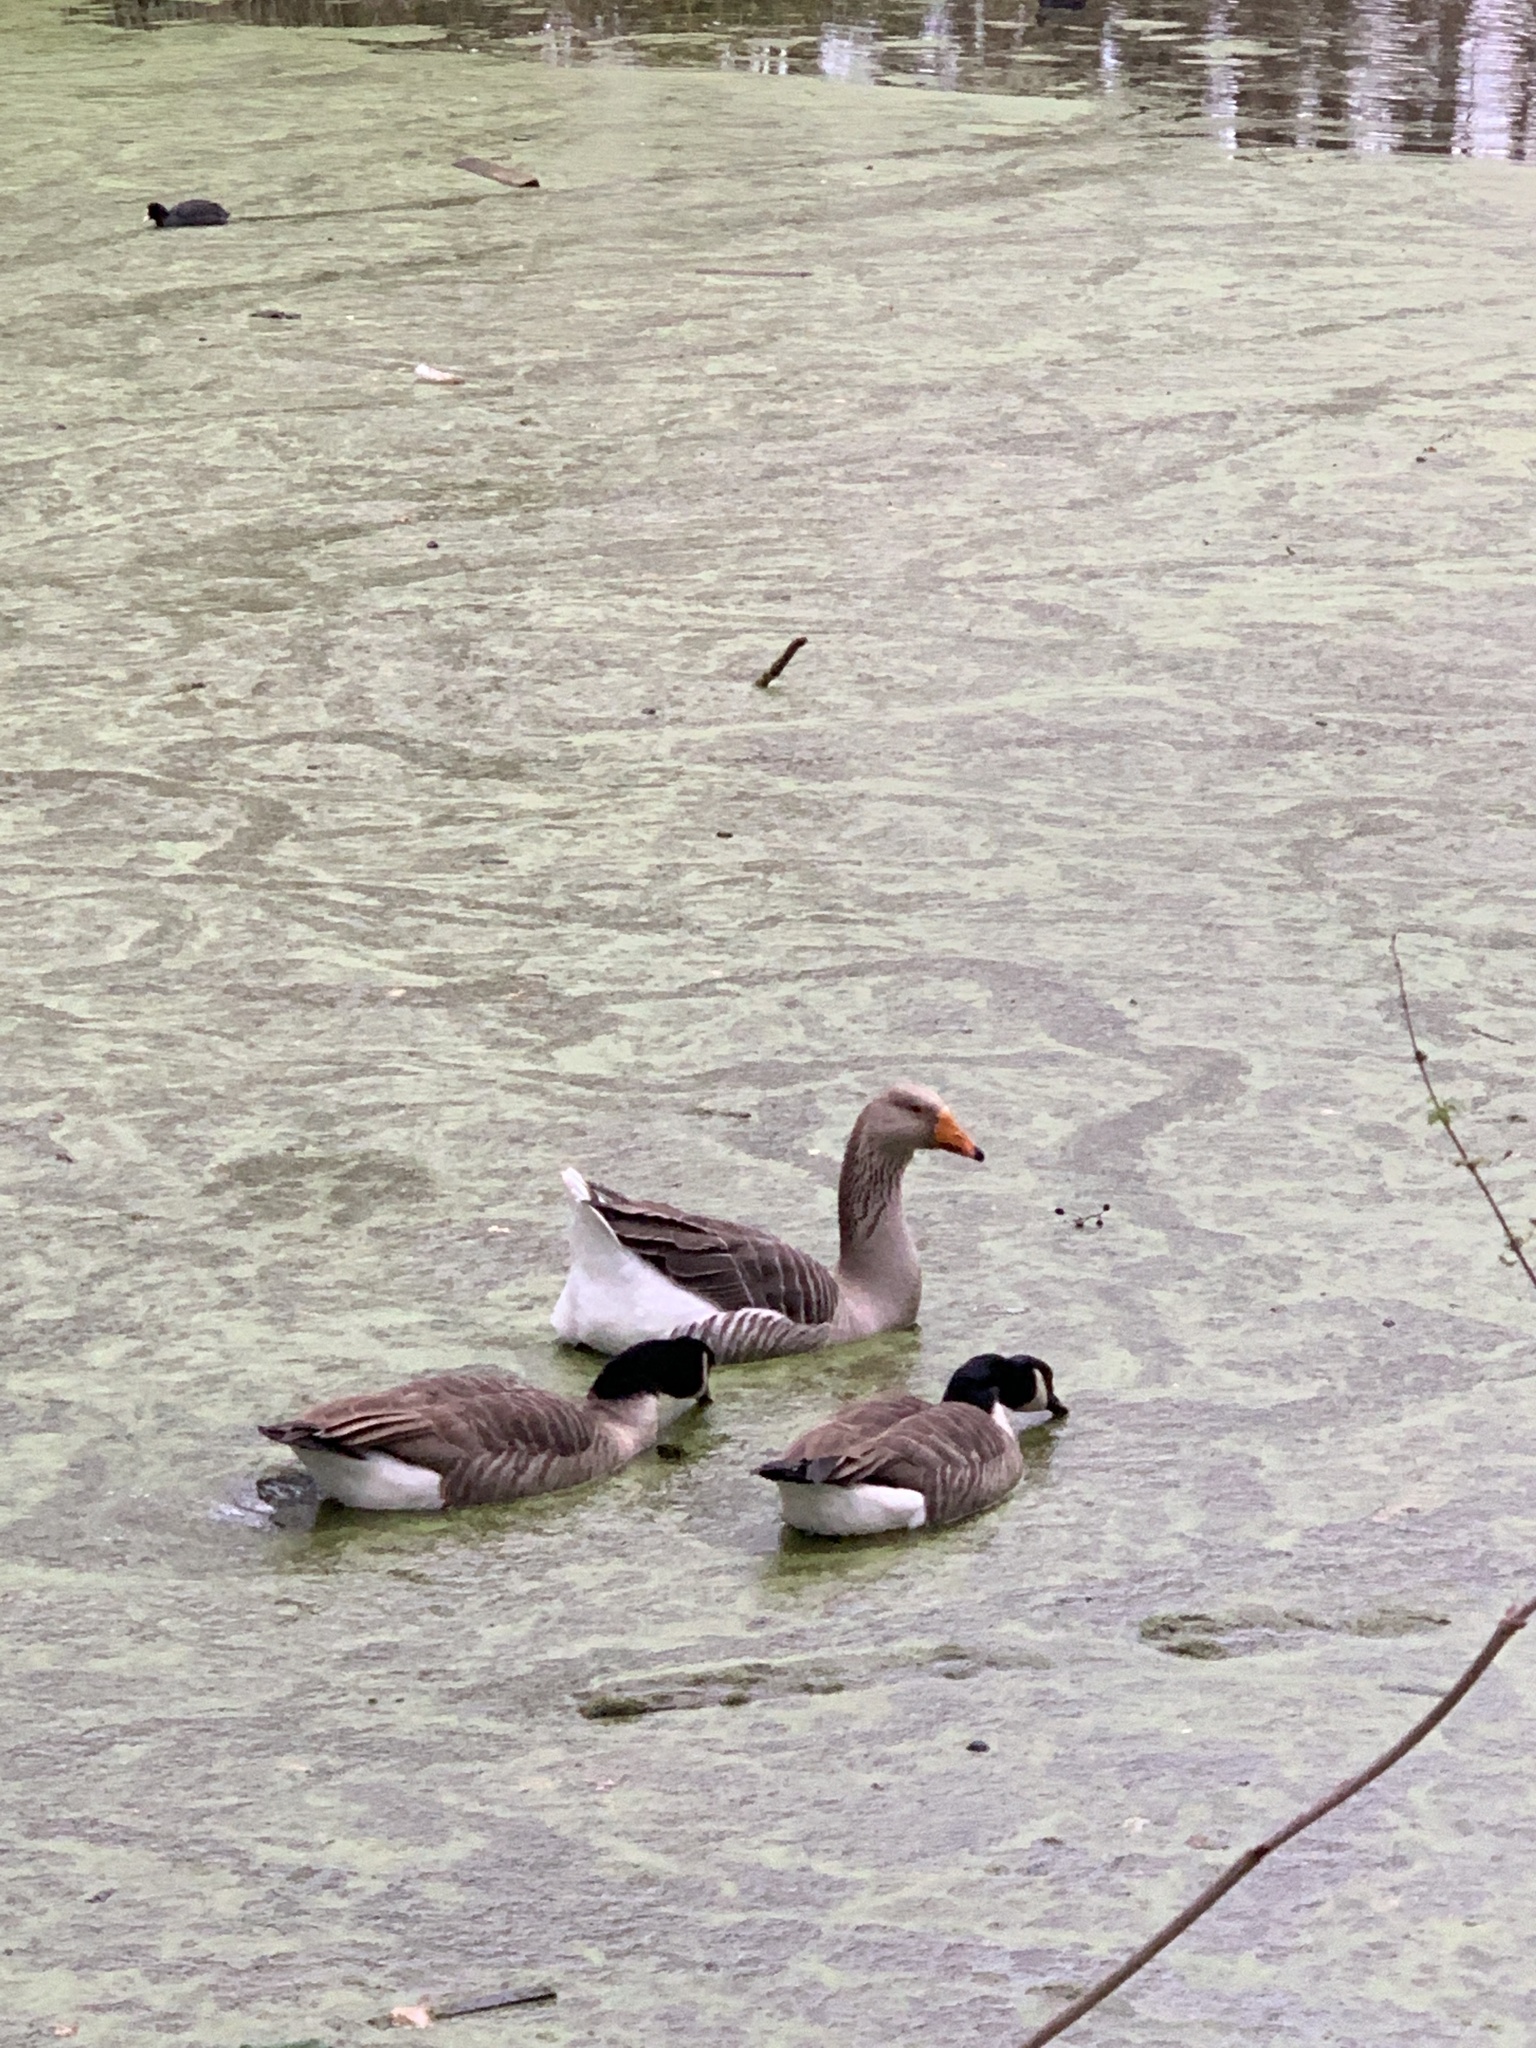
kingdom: Animalia
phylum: Chordata
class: Aves
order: Anseriformes
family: Anatidae
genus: Anser
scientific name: Anser anser
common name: Greylag goose
